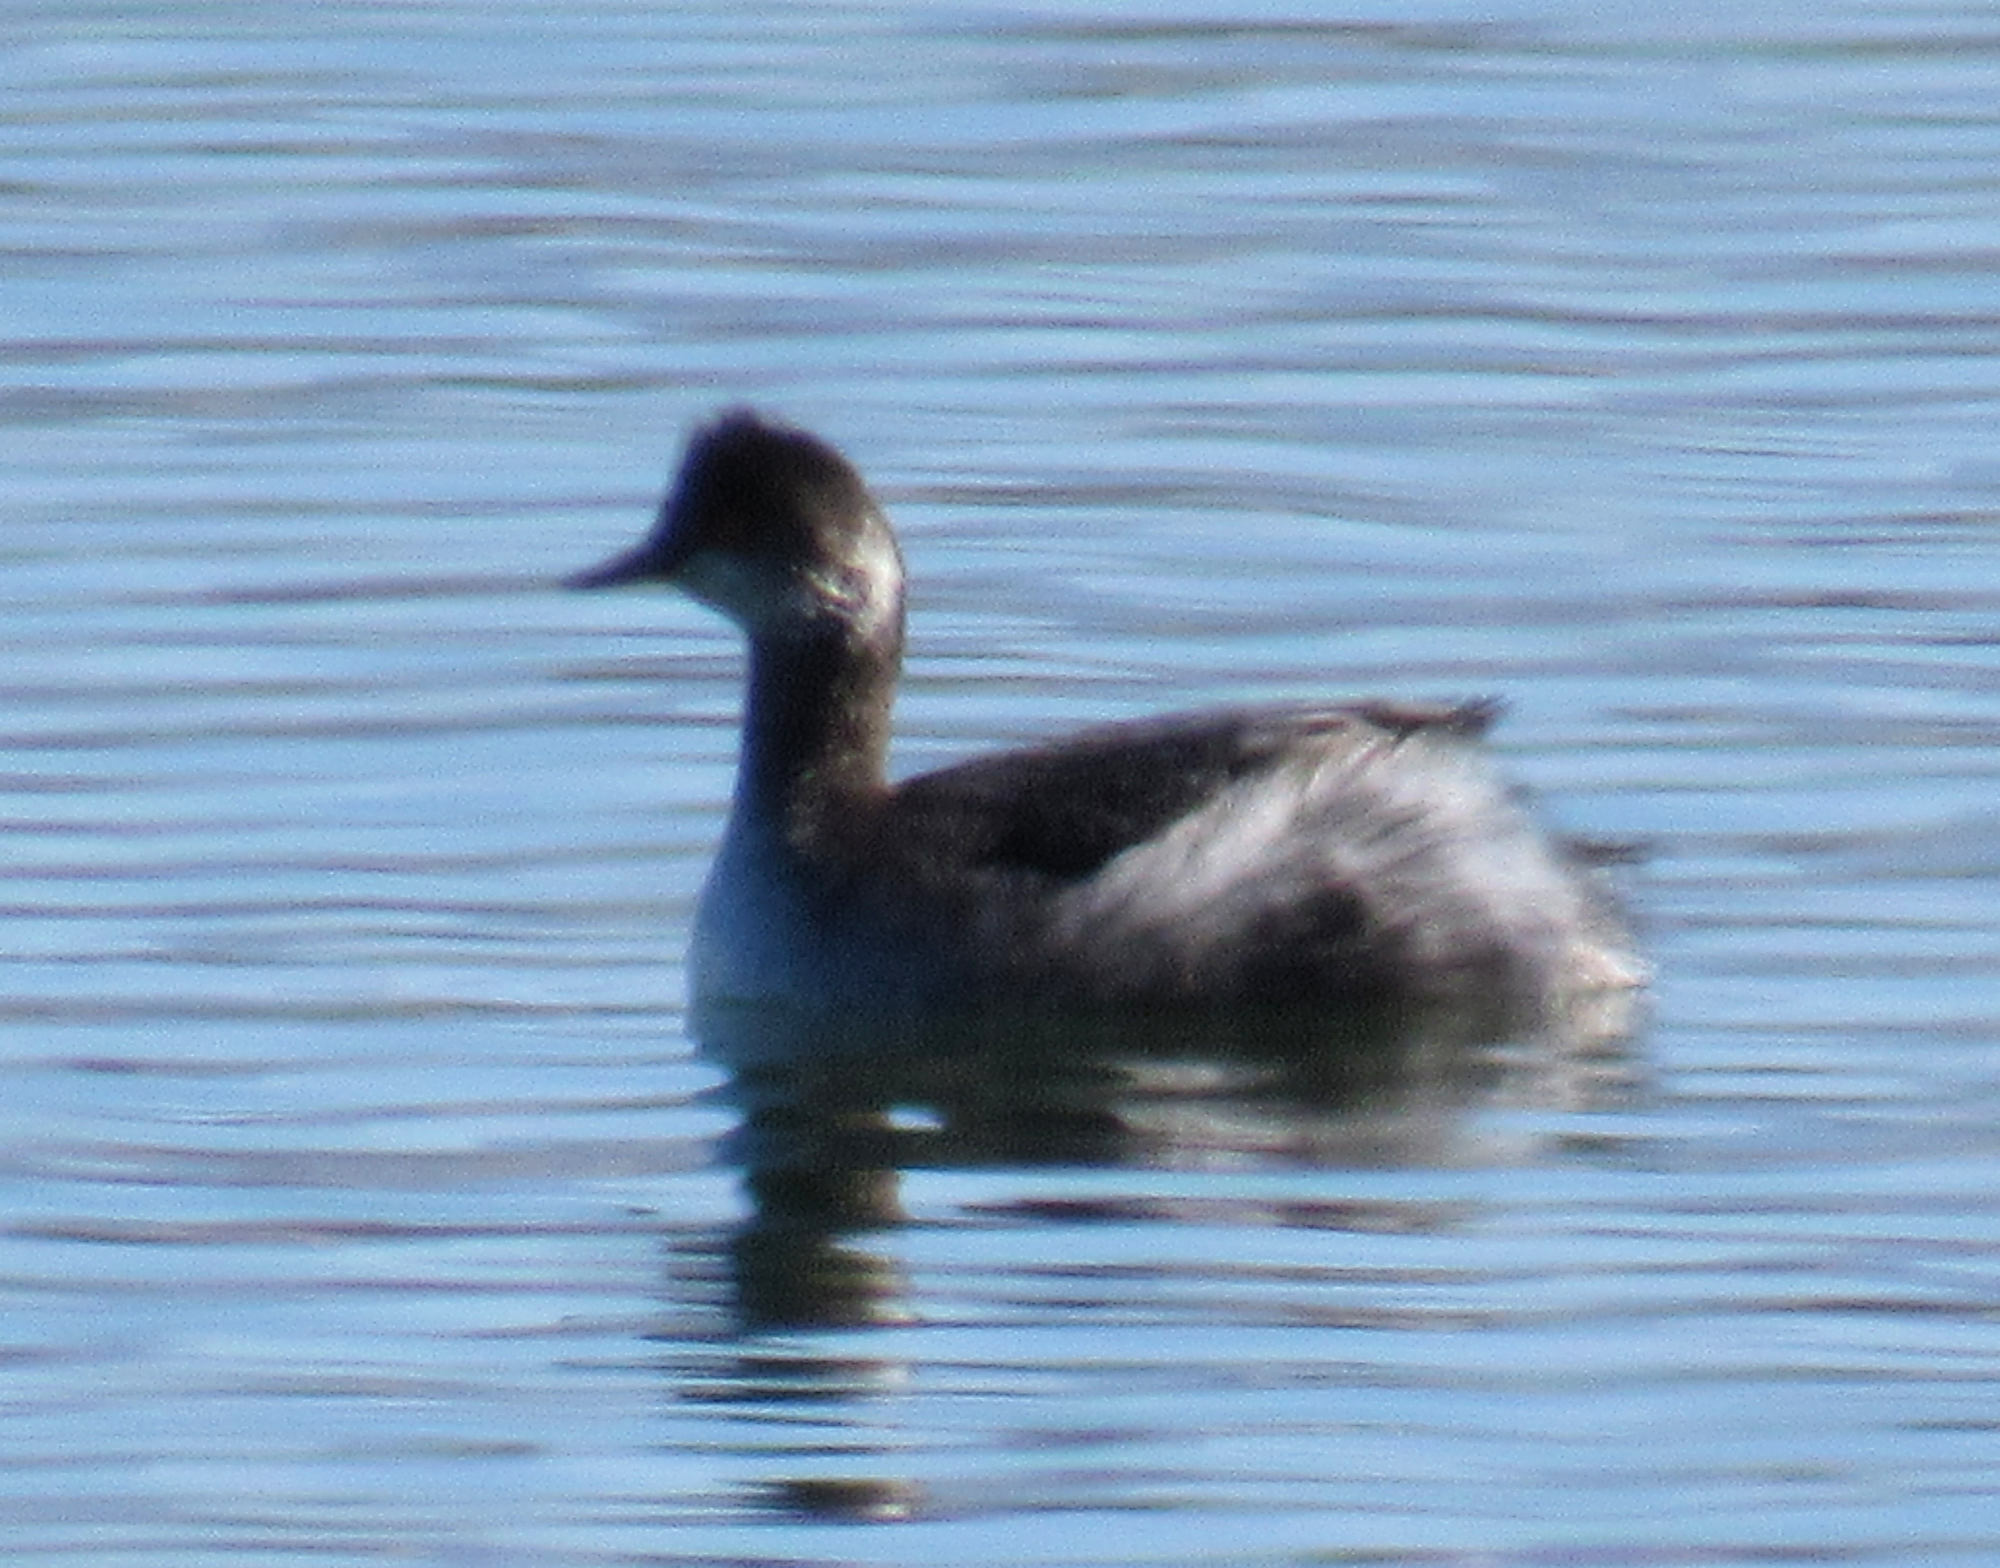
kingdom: Animalia
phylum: Chordata
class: Aves
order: Podicipediformes
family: Podicipedidae
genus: Podiceps
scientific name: Podiceps nigricollis
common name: Black-necked grebe
